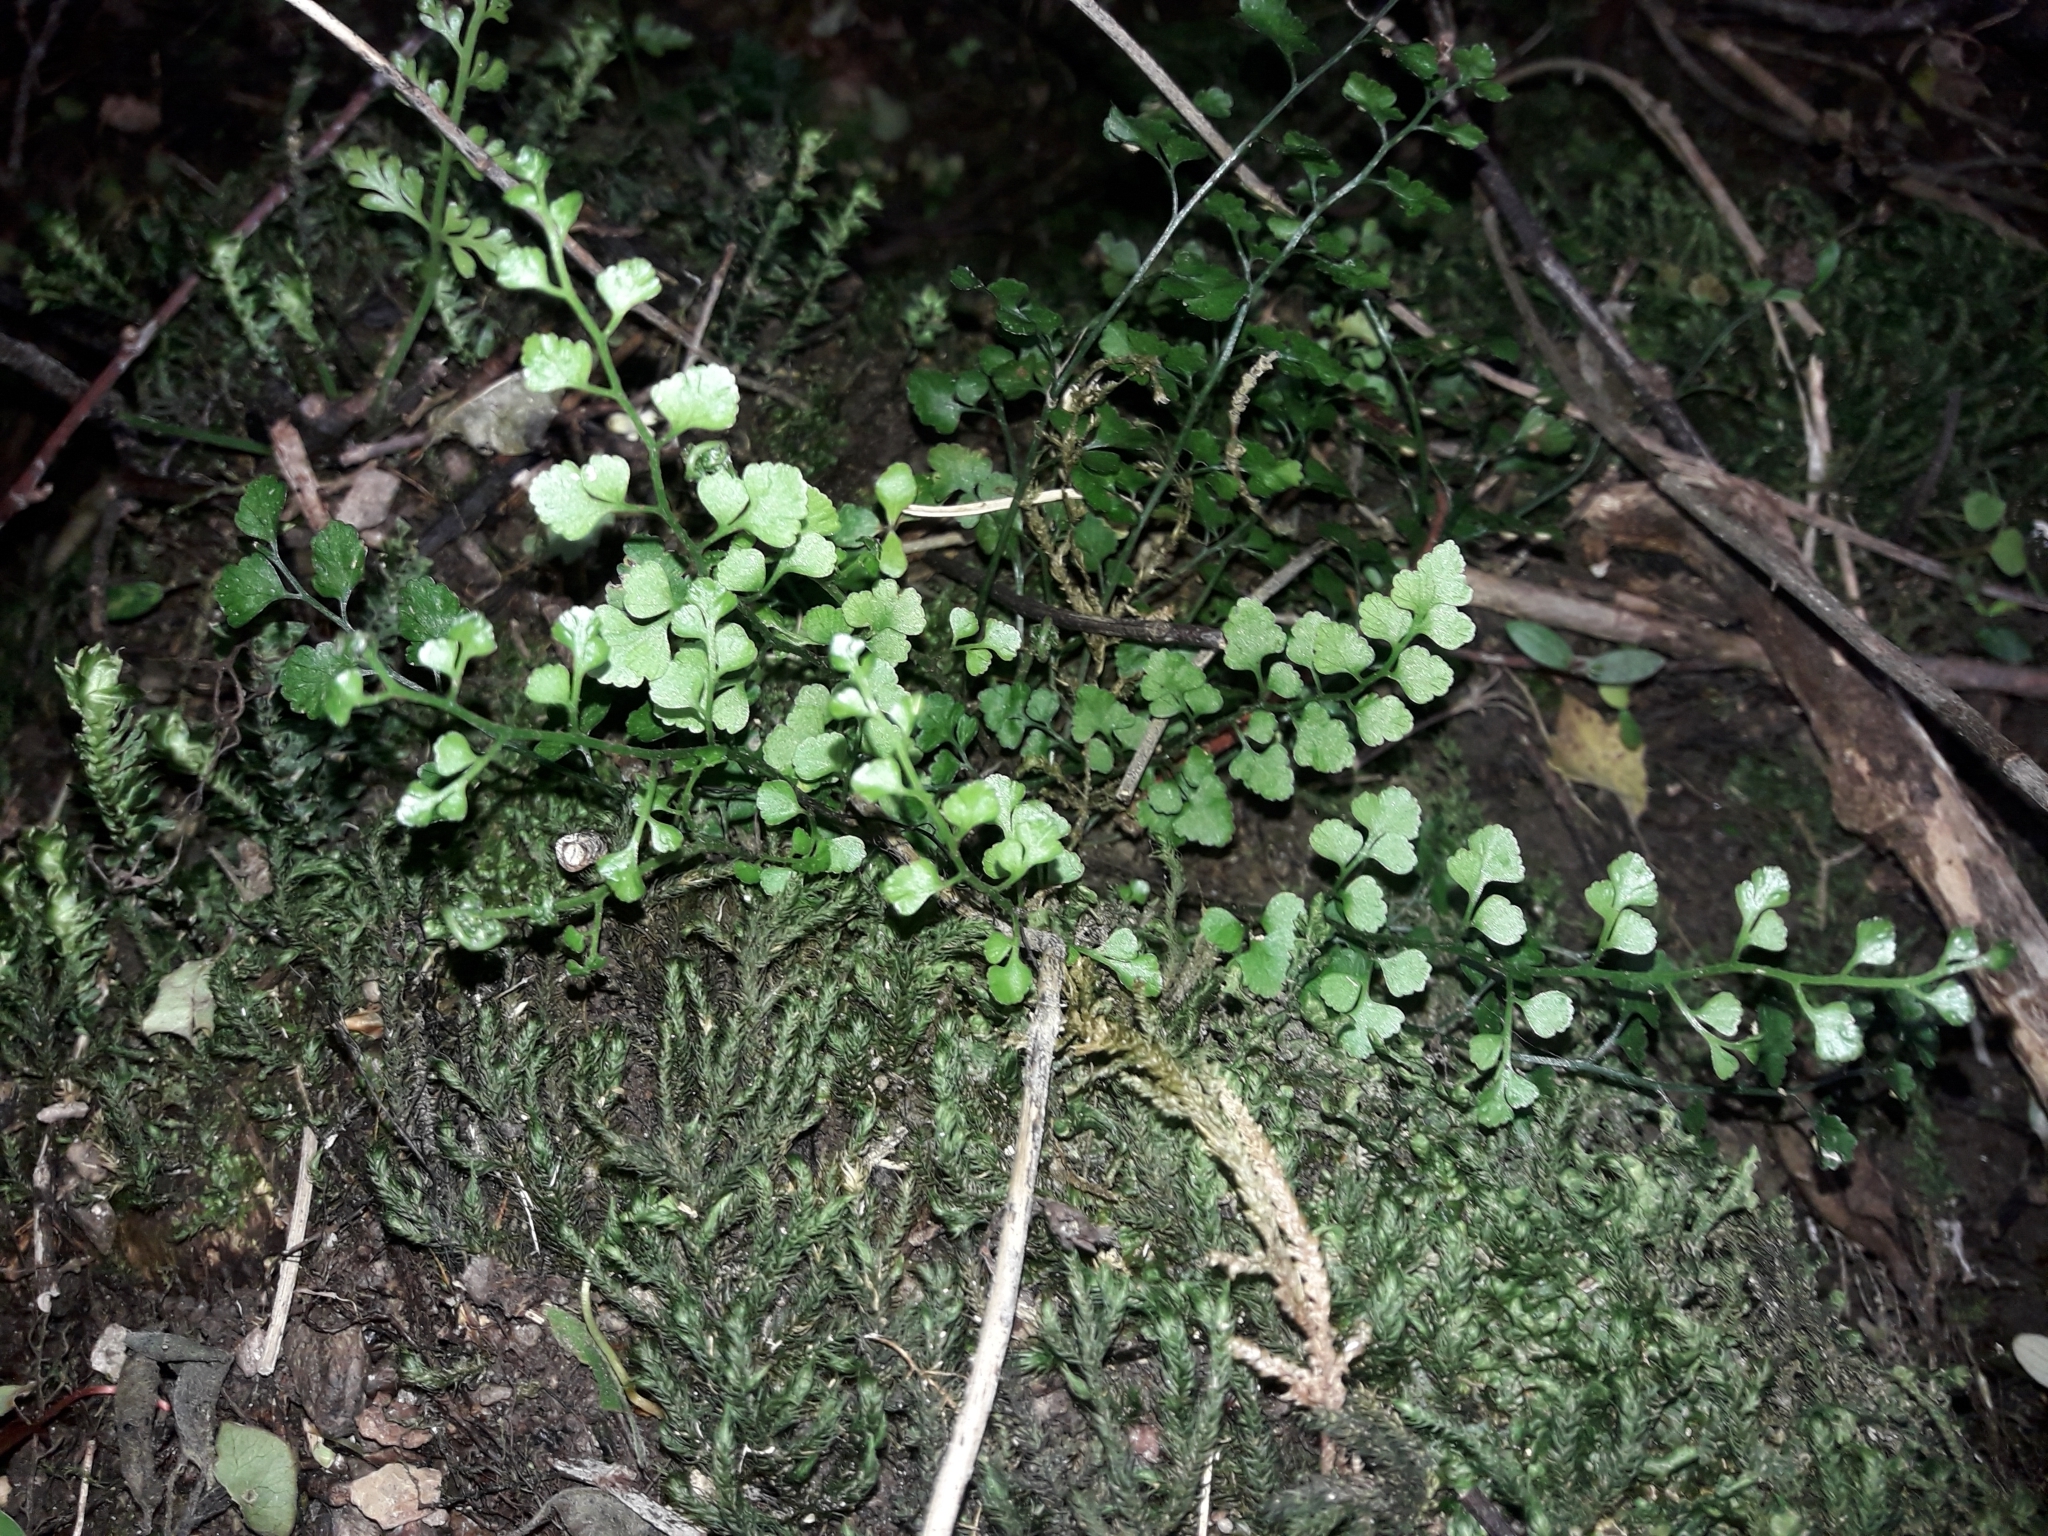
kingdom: Plantae
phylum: Tracheophyta
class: Polypodiopsida
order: Polypodiales
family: Aspleniaceae
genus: Asplenium
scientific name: Asplenium hookerianum
